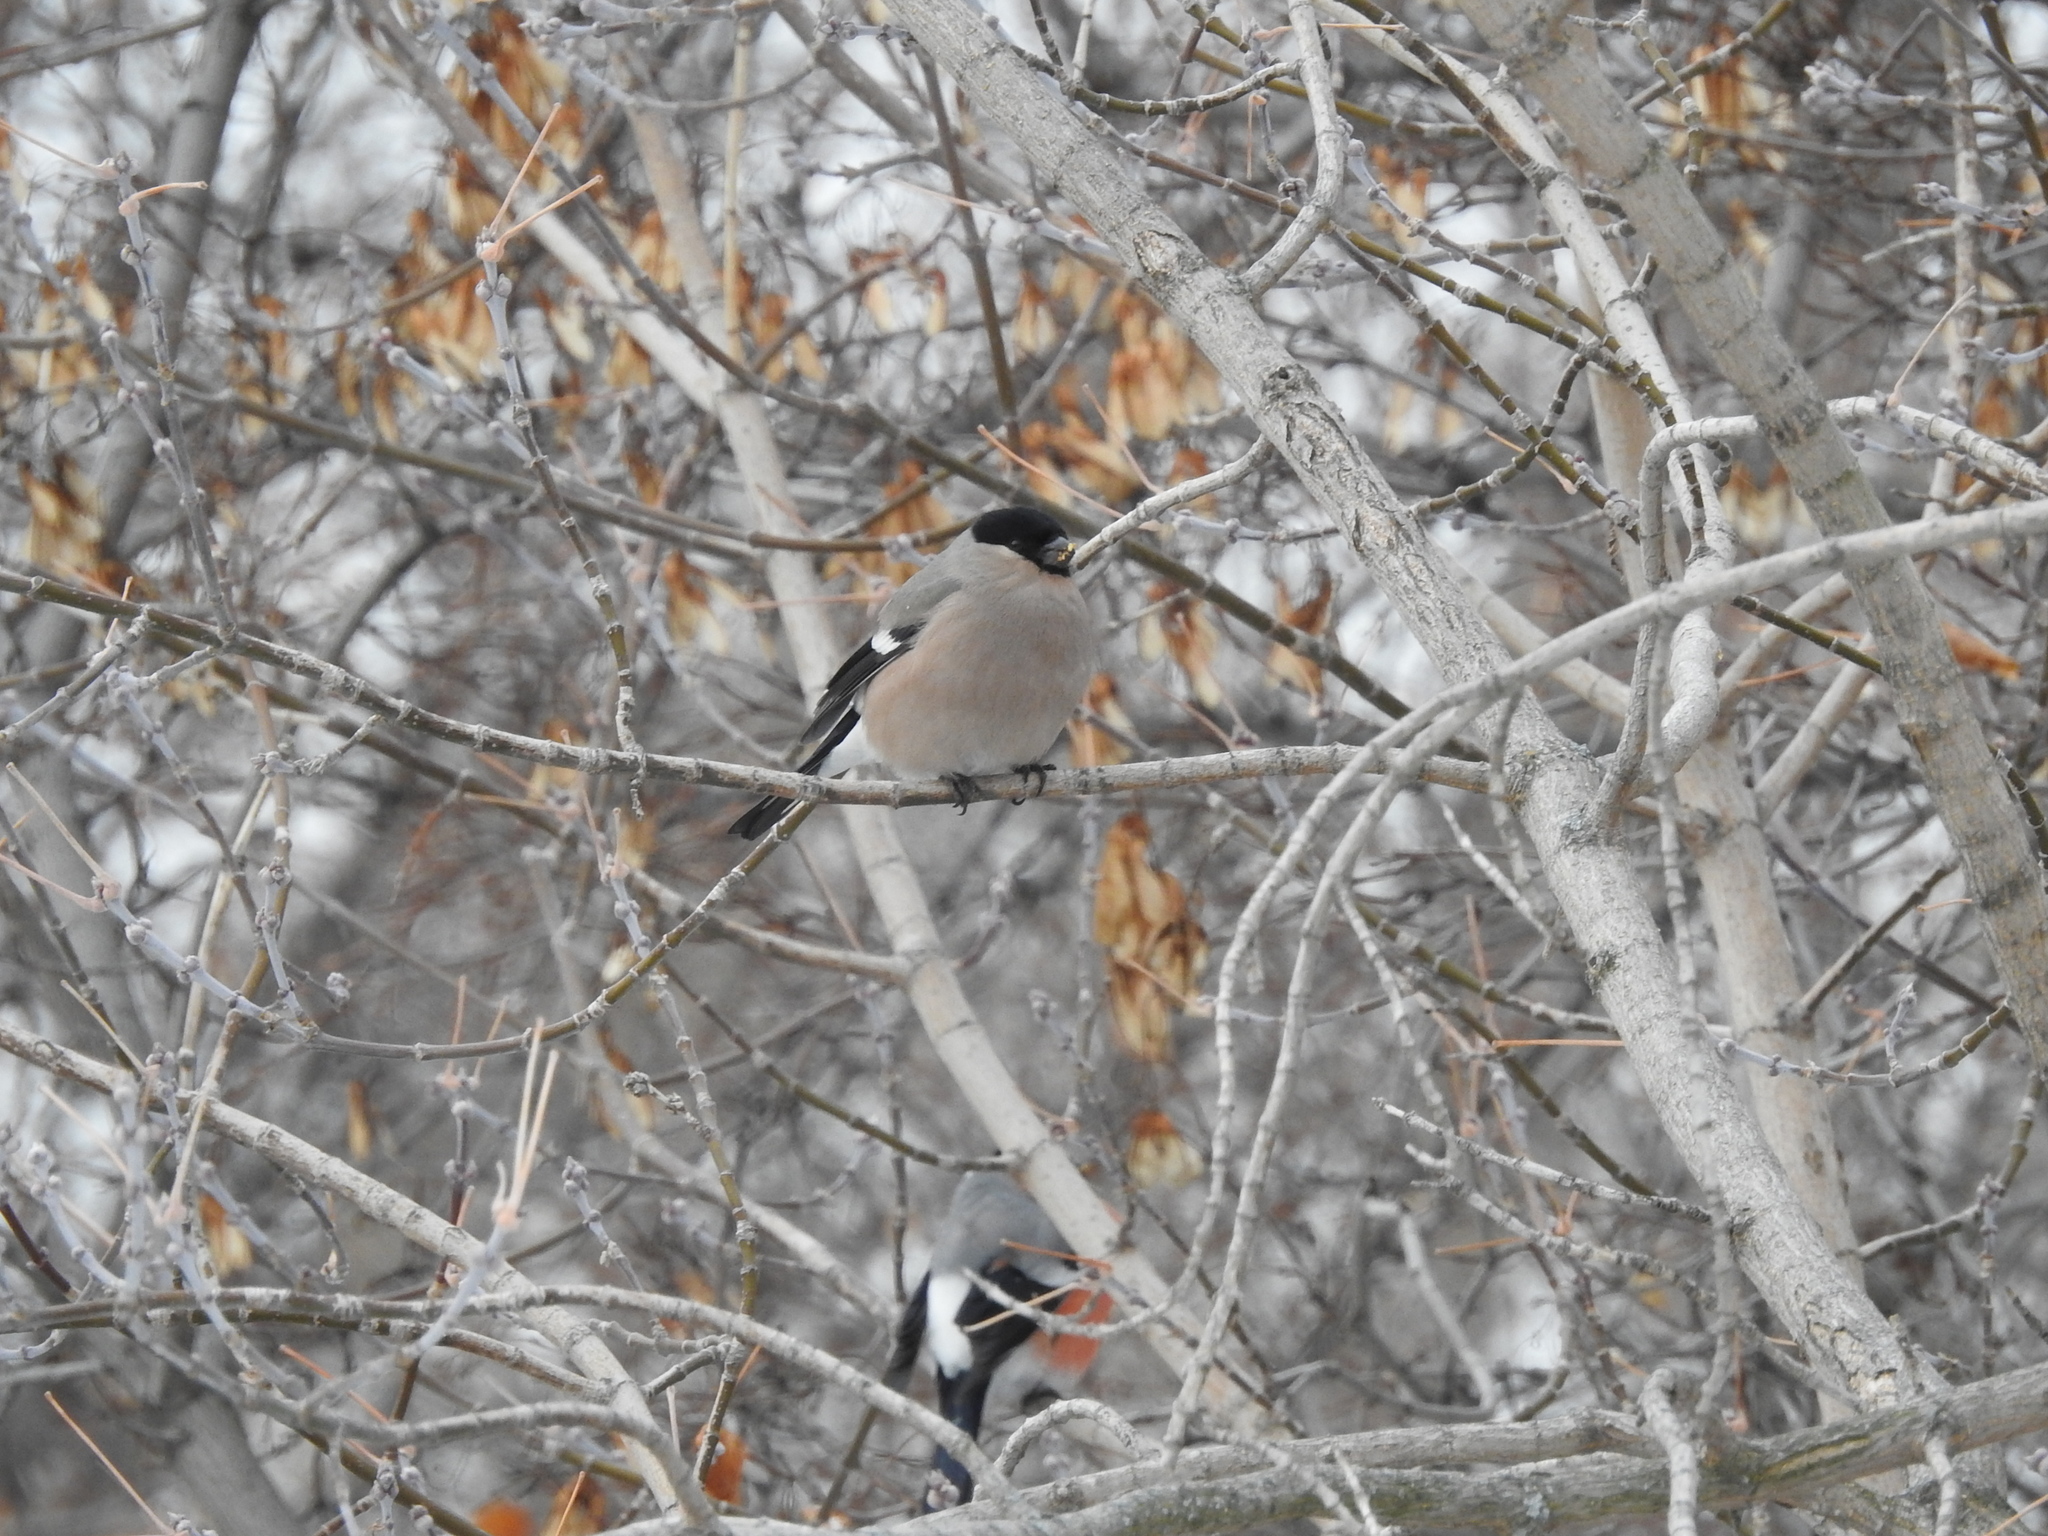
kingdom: Animalia
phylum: Chordata
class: Aves
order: Passeriformes
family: Fringillidae
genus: Pyrrhula
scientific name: Pyrrhula pyrrhula
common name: Eurasian bullfinch
